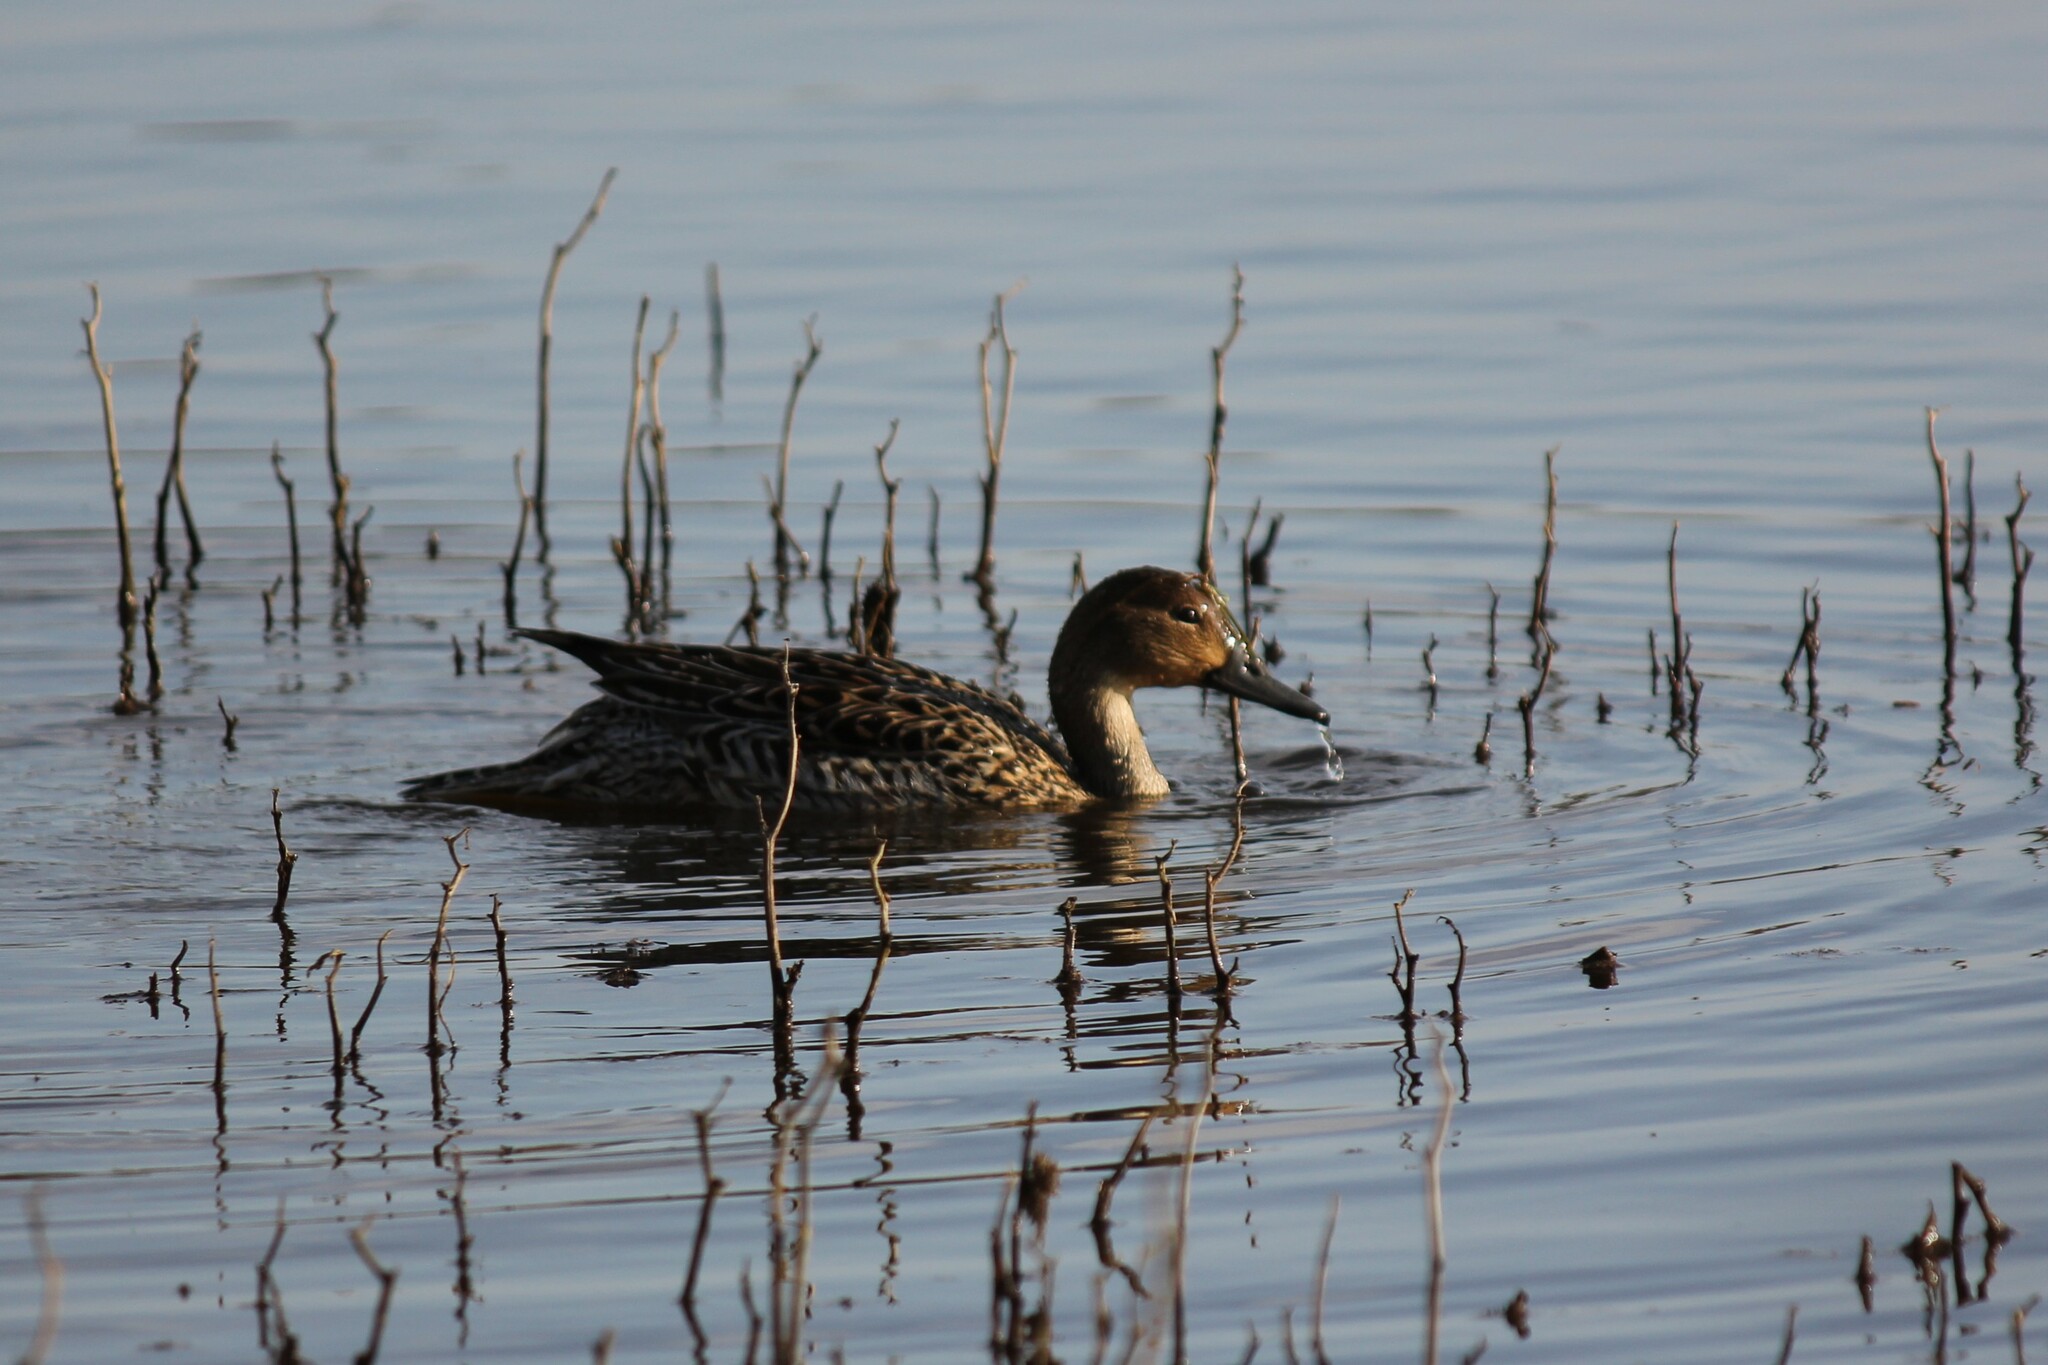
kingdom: Animalia
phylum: Chordata
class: Aves
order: Anseriformes
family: Anatidae
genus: Anas
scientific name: Anas acuta
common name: Northern pintail
